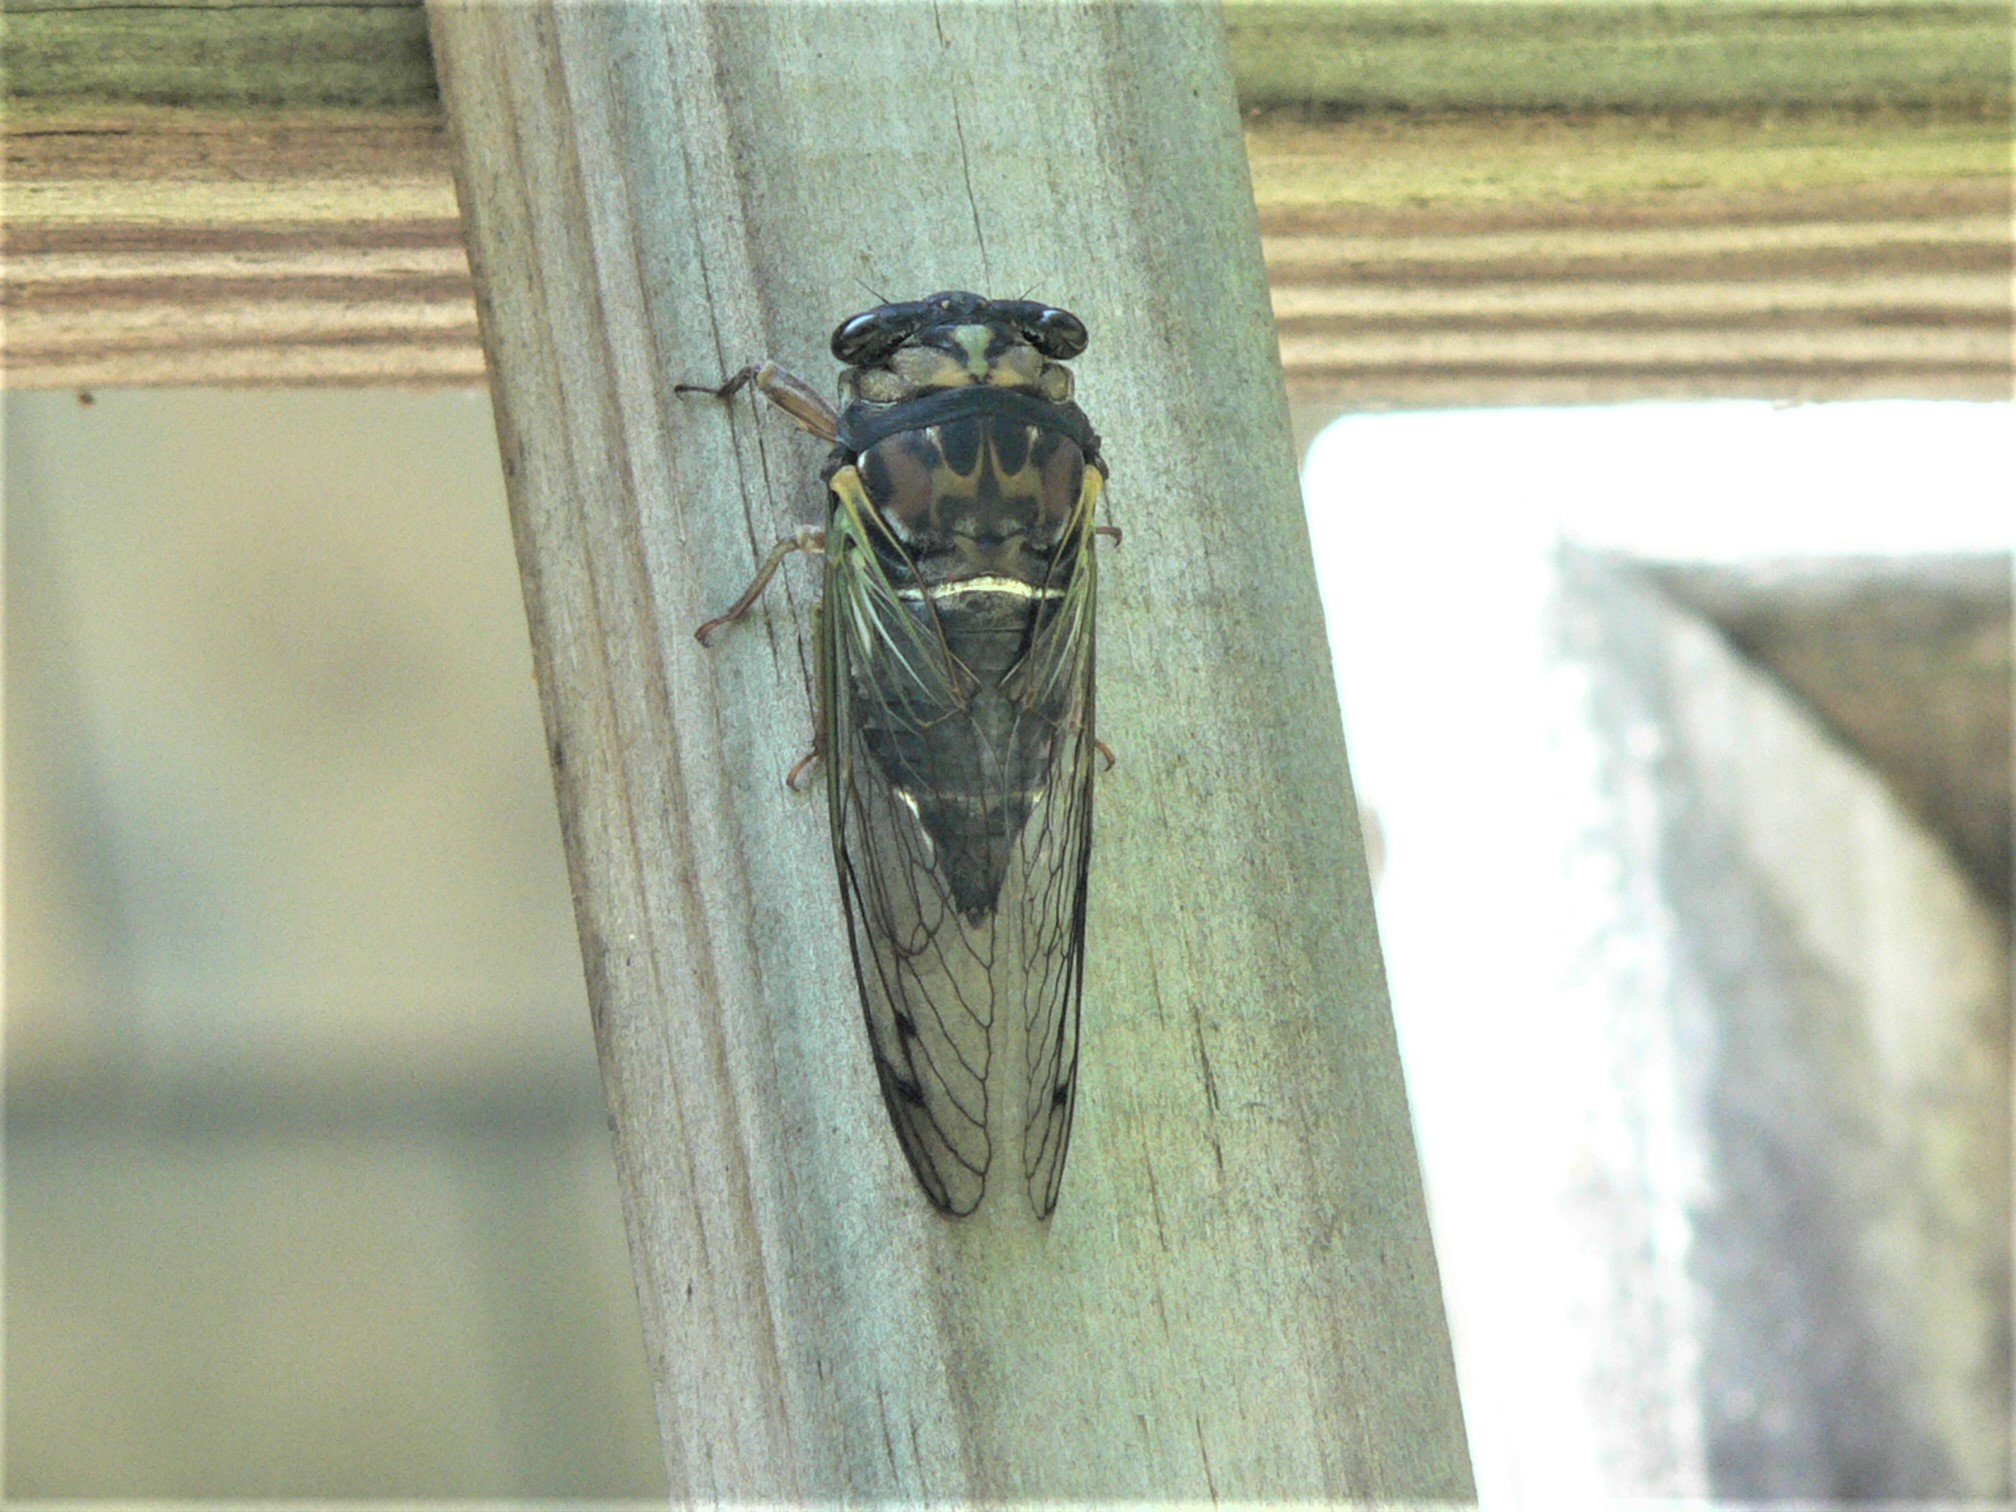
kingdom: Animalia
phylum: Arthropoda
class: Insecta
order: Hemiptera
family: Cicadidae
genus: Neotibicen
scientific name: Neotibicen lyricen
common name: Lyric cicada
